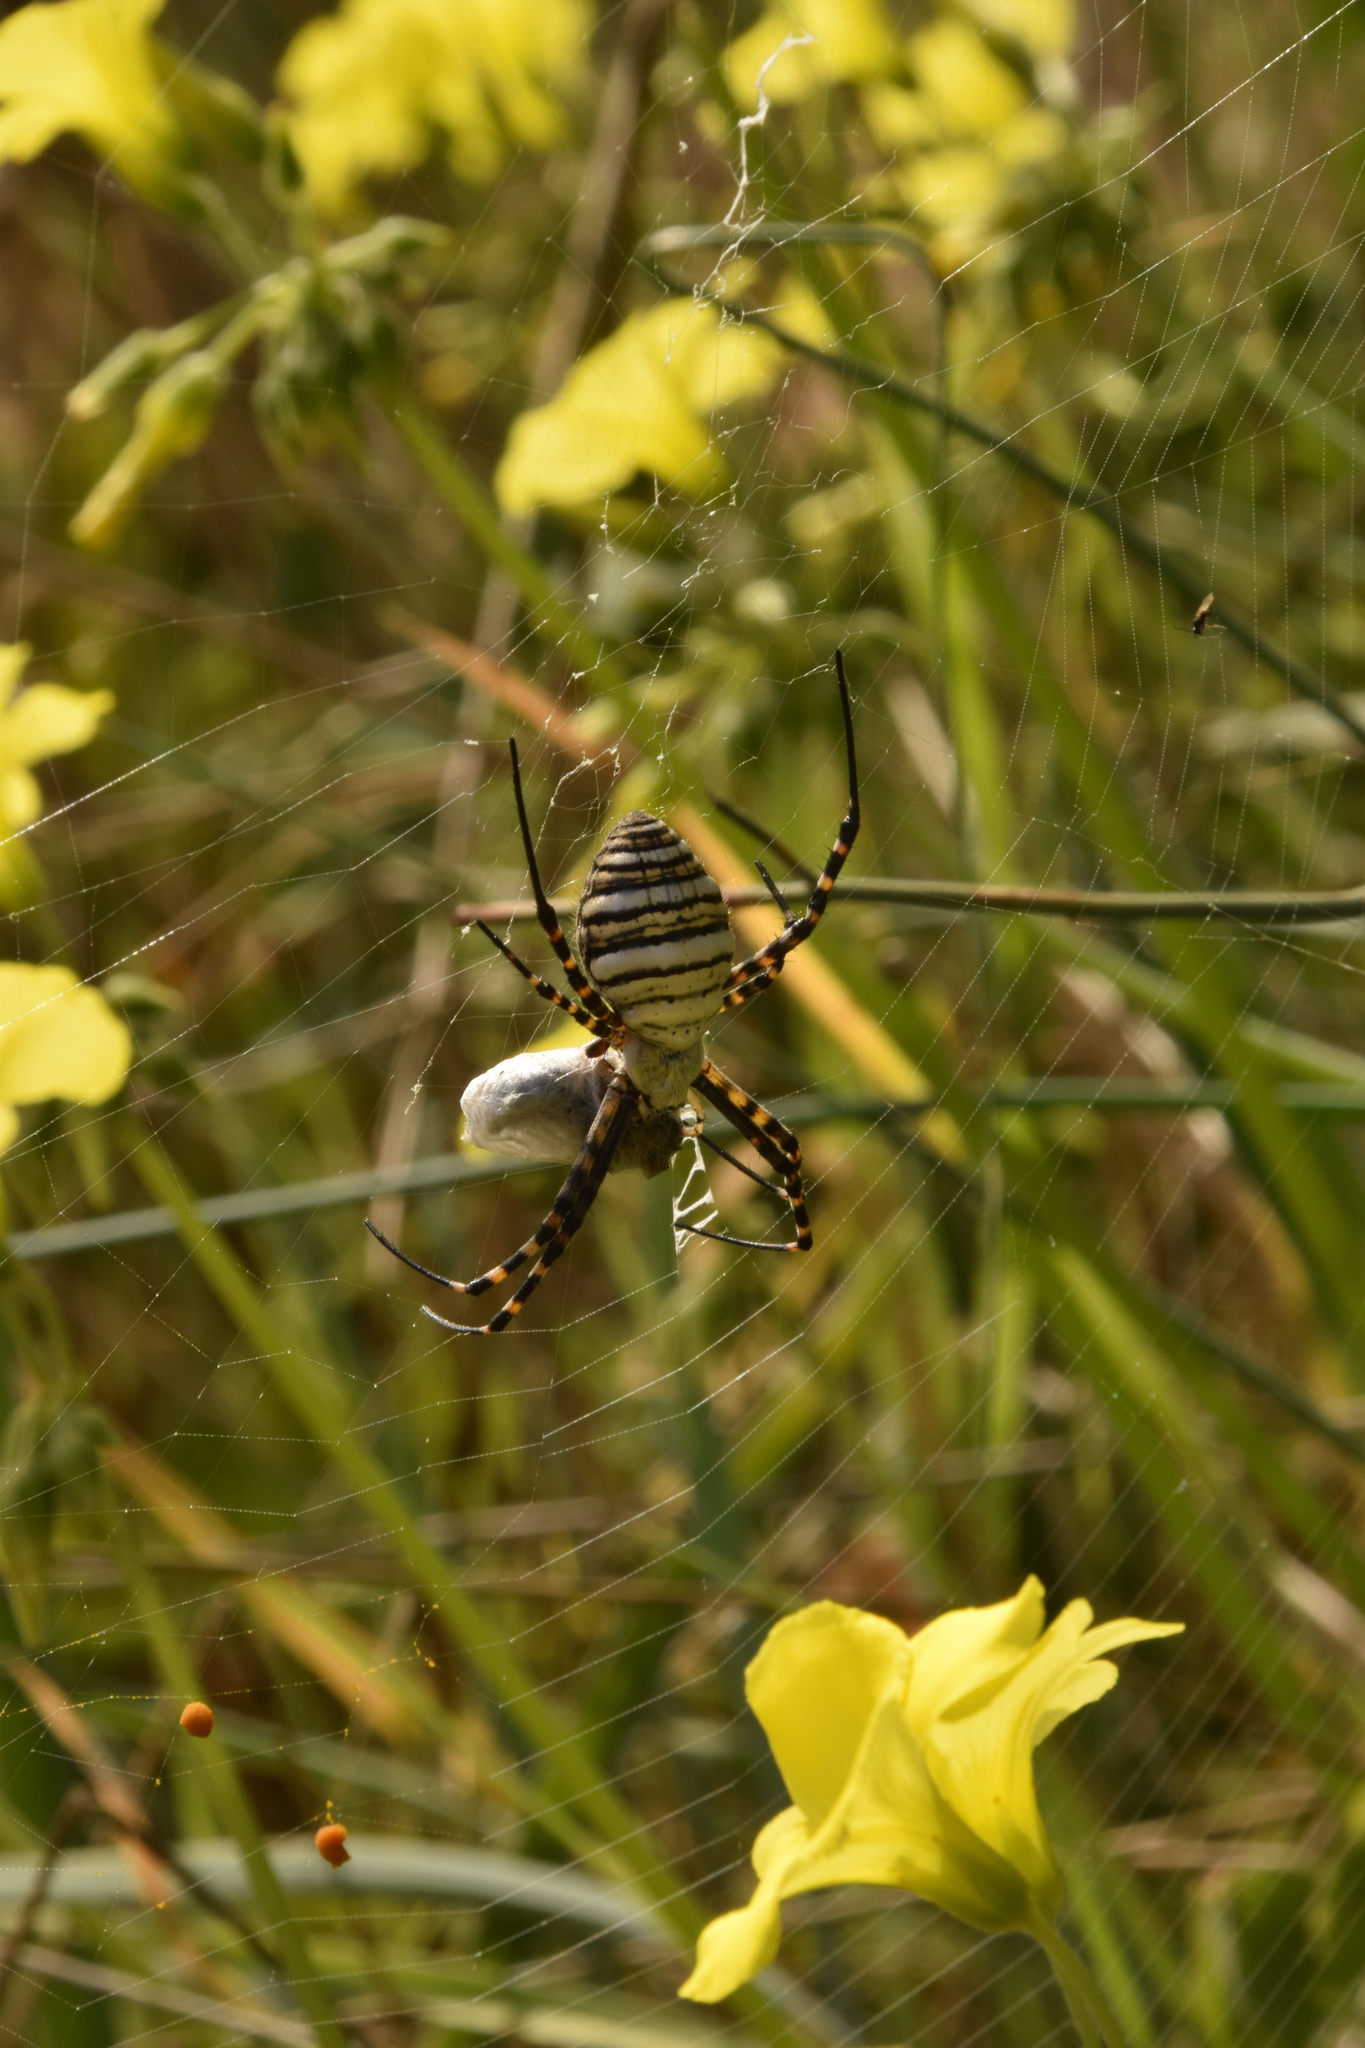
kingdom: Animalia
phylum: Arthropoda
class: Arachnida
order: Araneae
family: Araneidae
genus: Argiope
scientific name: Argiope trifasciata
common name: Banded garden spider
